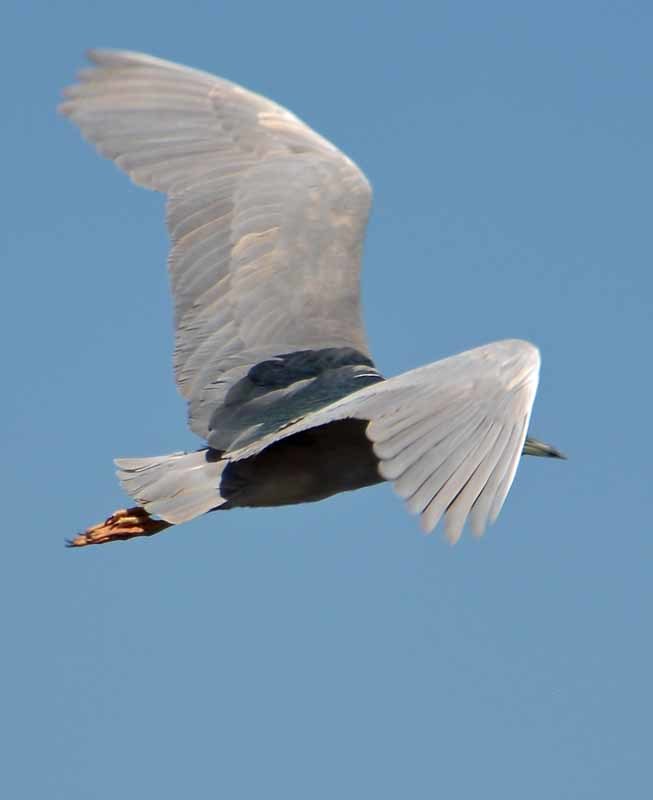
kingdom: Animalia
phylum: Chordata
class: Aves
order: Pelecaniformes
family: Ardeidae
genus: Nycticorax
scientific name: Nycticorax nycticorax
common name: Black-crowned night heron
